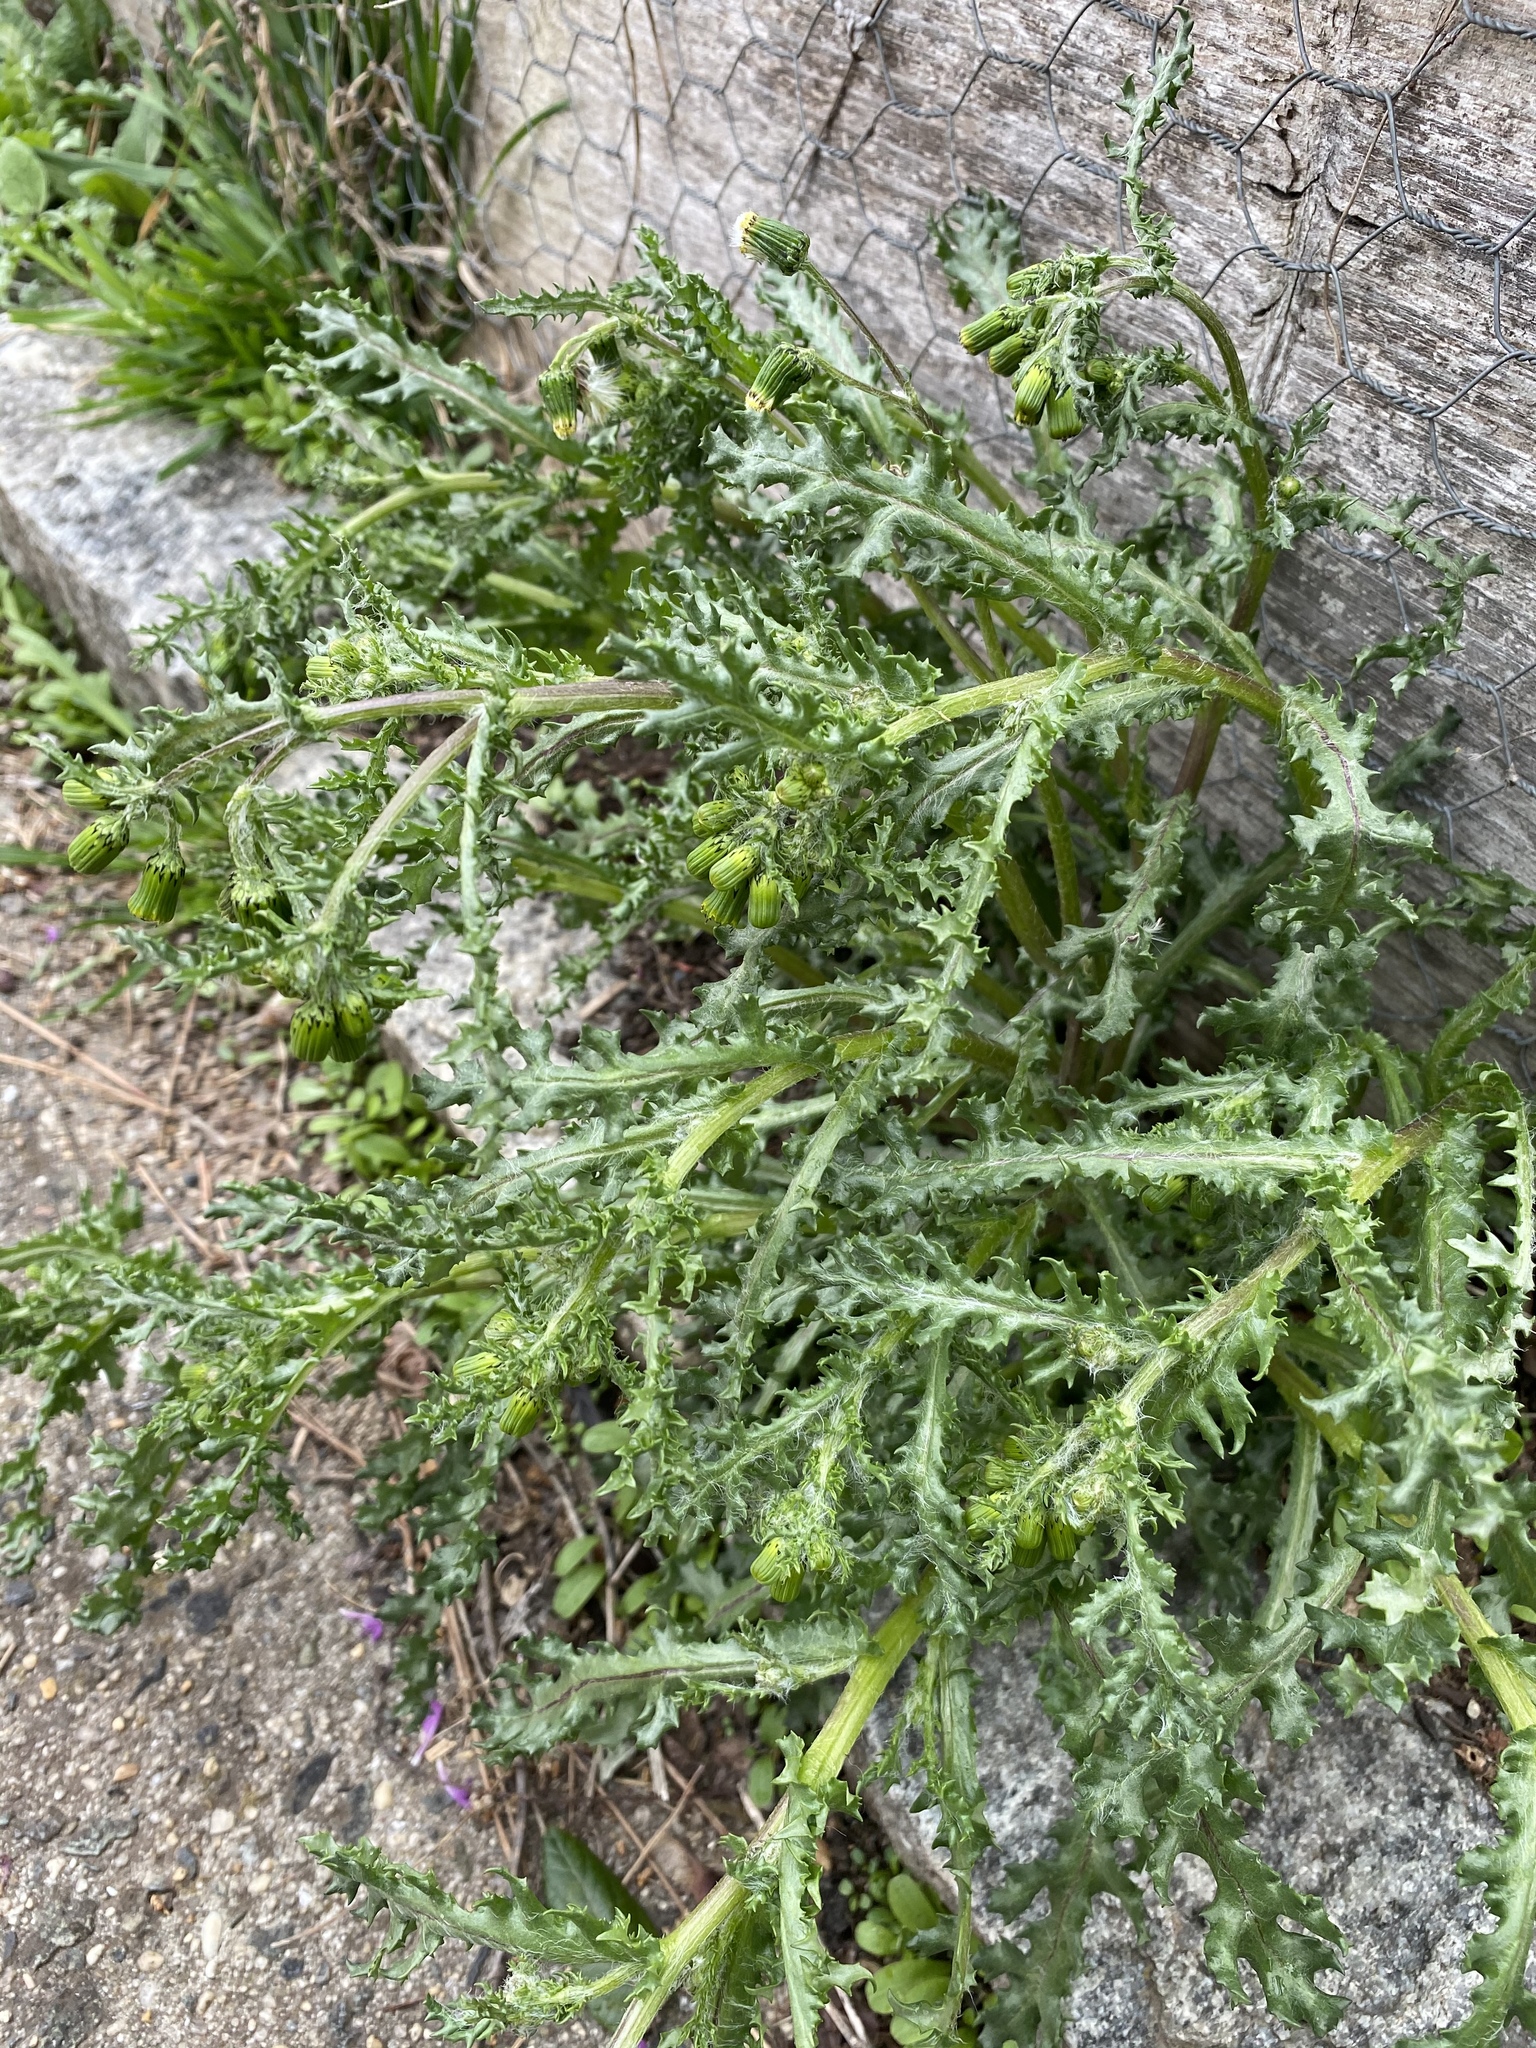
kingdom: Plantae
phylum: Tracheophyta
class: Magnoliopsida
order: Asterales
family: Asteraceae
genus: Senecio
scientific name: Senecio vulgaris
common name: Old-man-in-the-spring
